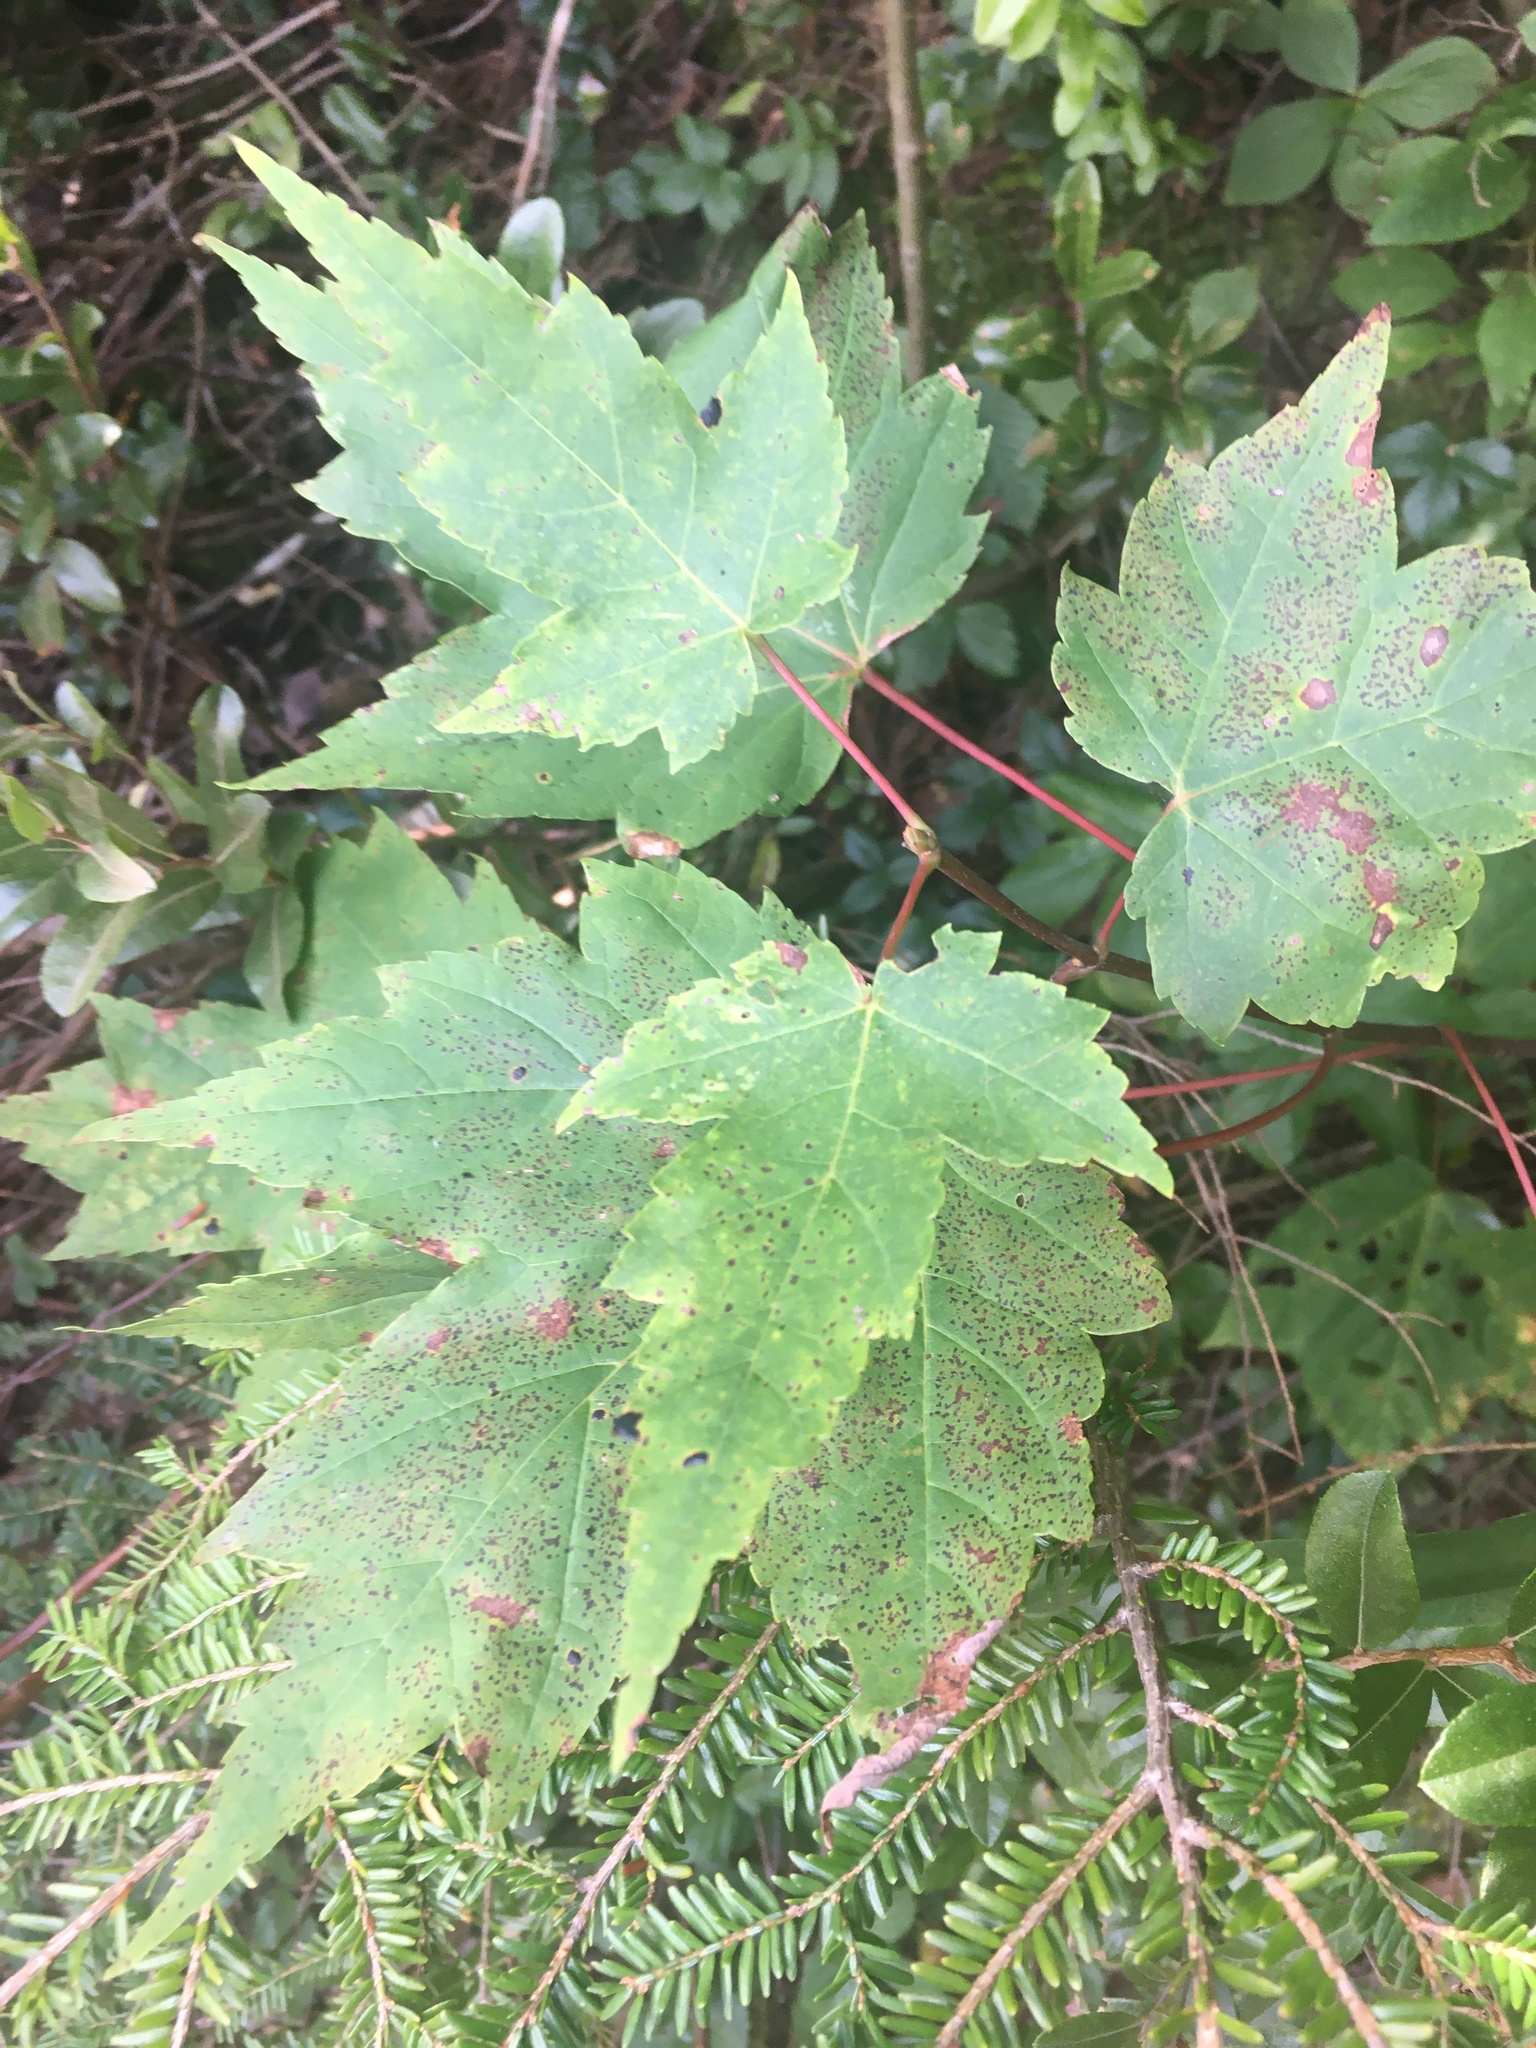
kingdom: Plantae
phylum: Tracheophyta
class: Magnoliopsida
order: Sapindales
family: Sapindaceae
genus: Acer
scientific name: Acer rubrum
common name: Red maple
